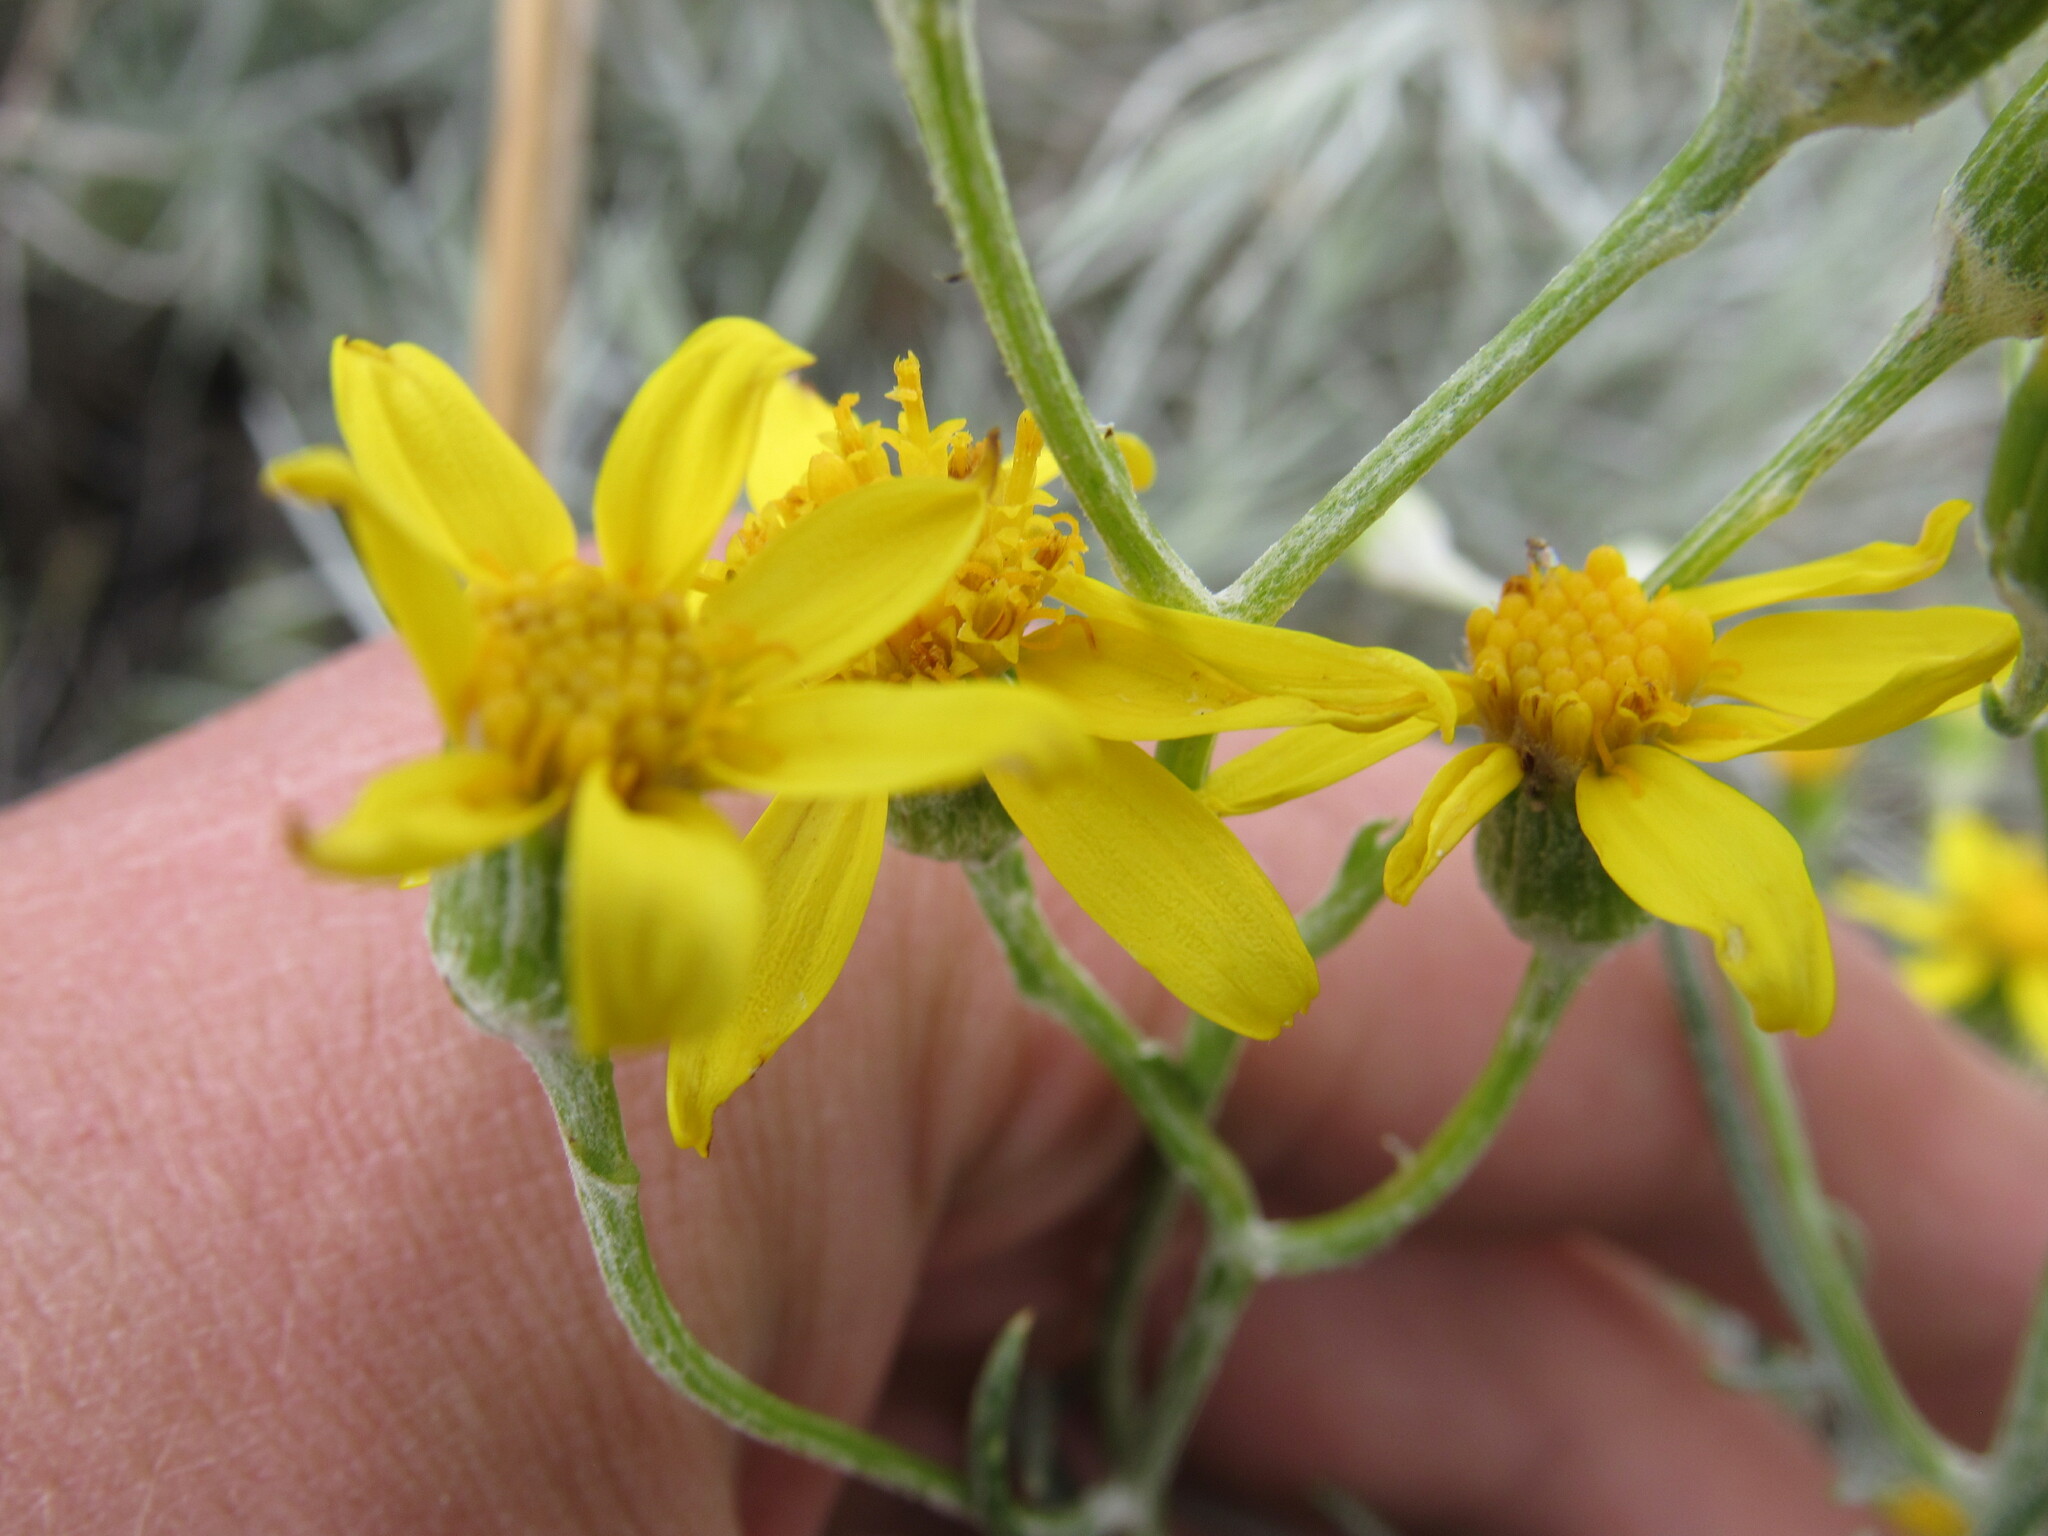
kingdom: Plantae
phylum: Tracheophyta
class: Magnoliopsida
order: Asterales
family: Asteraceae
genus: Senecio
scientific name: Senecio flaccidus
